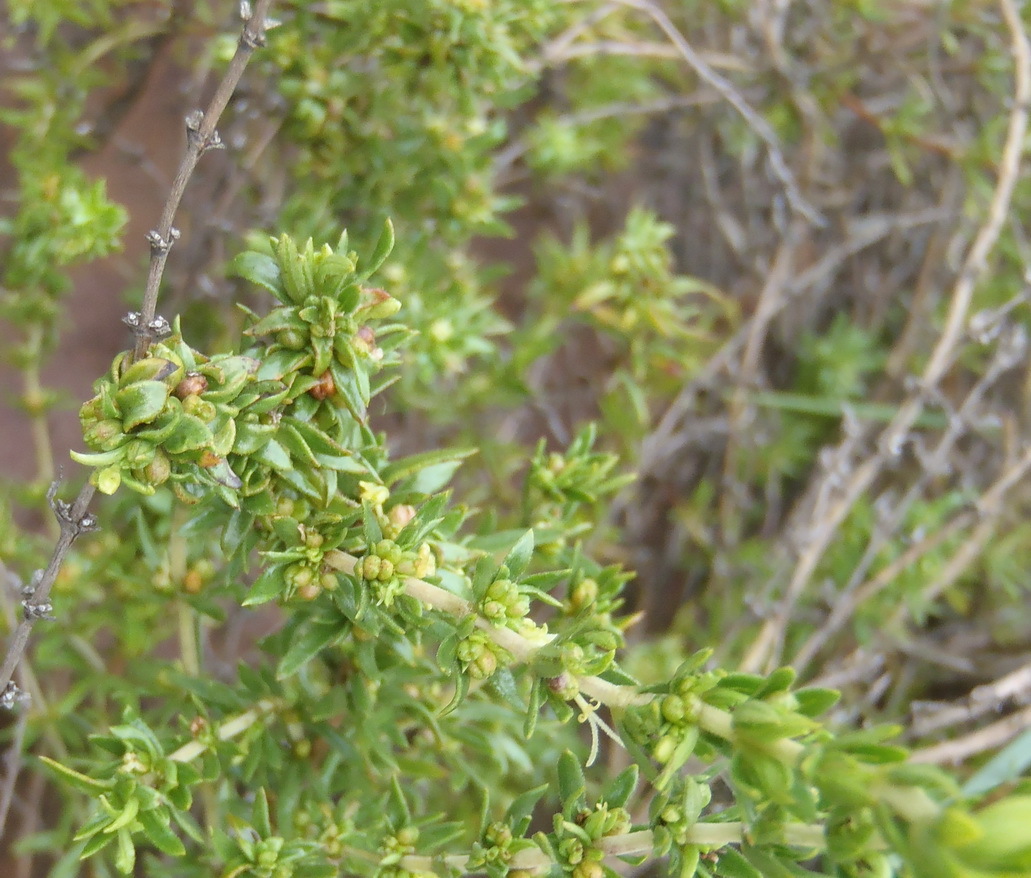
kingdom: Plantae
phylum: Tracheophyta
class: Magnoliopsida
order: Gentianales
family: Rubiaceae
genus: Anthospermum
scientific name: Anthospermum hispidulum
